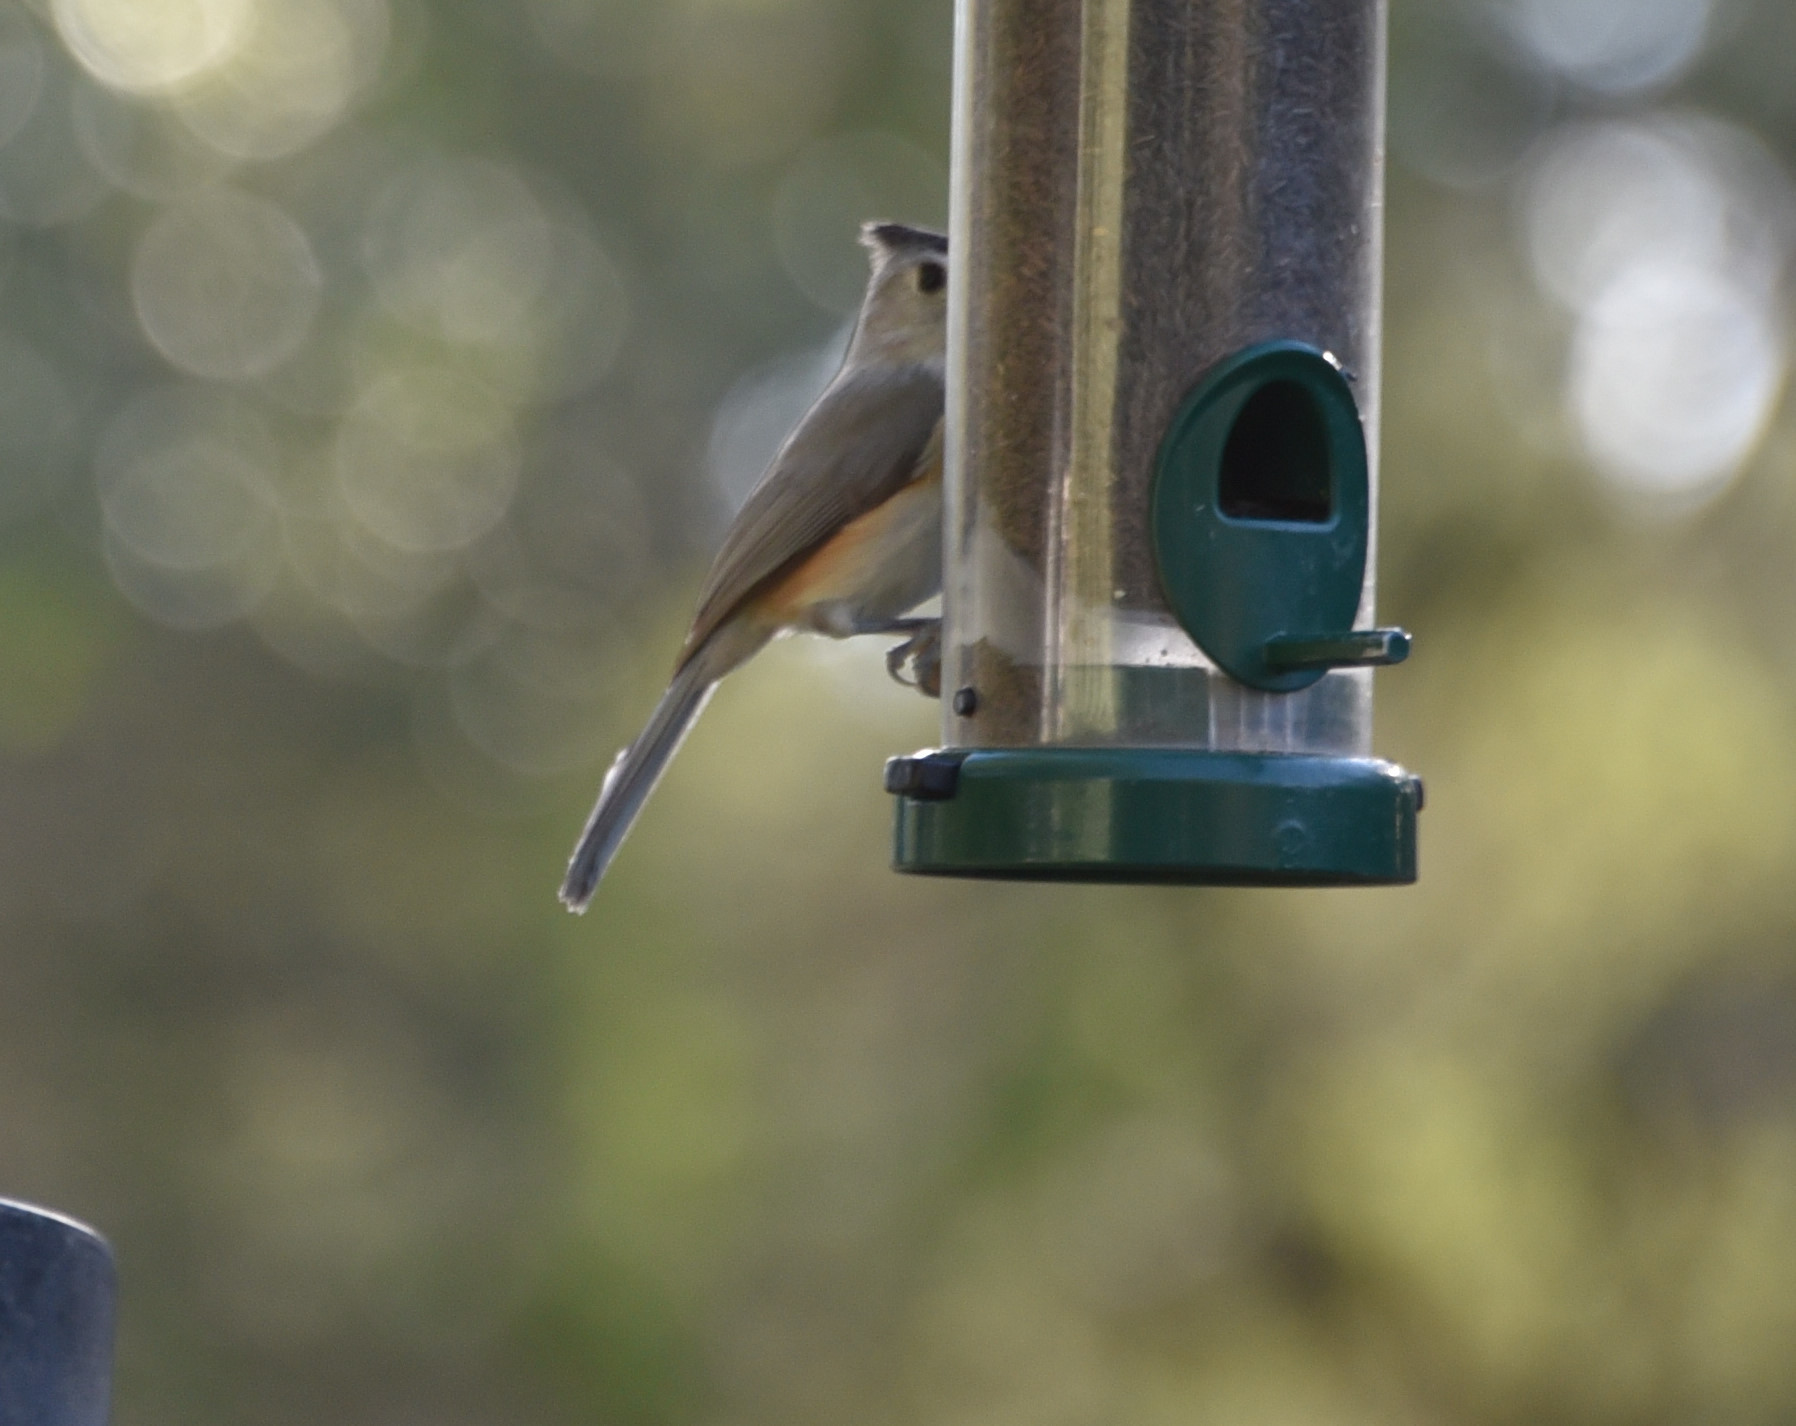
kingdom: Animalia
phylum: Chordata
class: Aves
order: Passeriformes
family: Paridae
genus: Baeolophus
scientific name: Baeolophus atricristatus
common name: Black-crested titmouse
